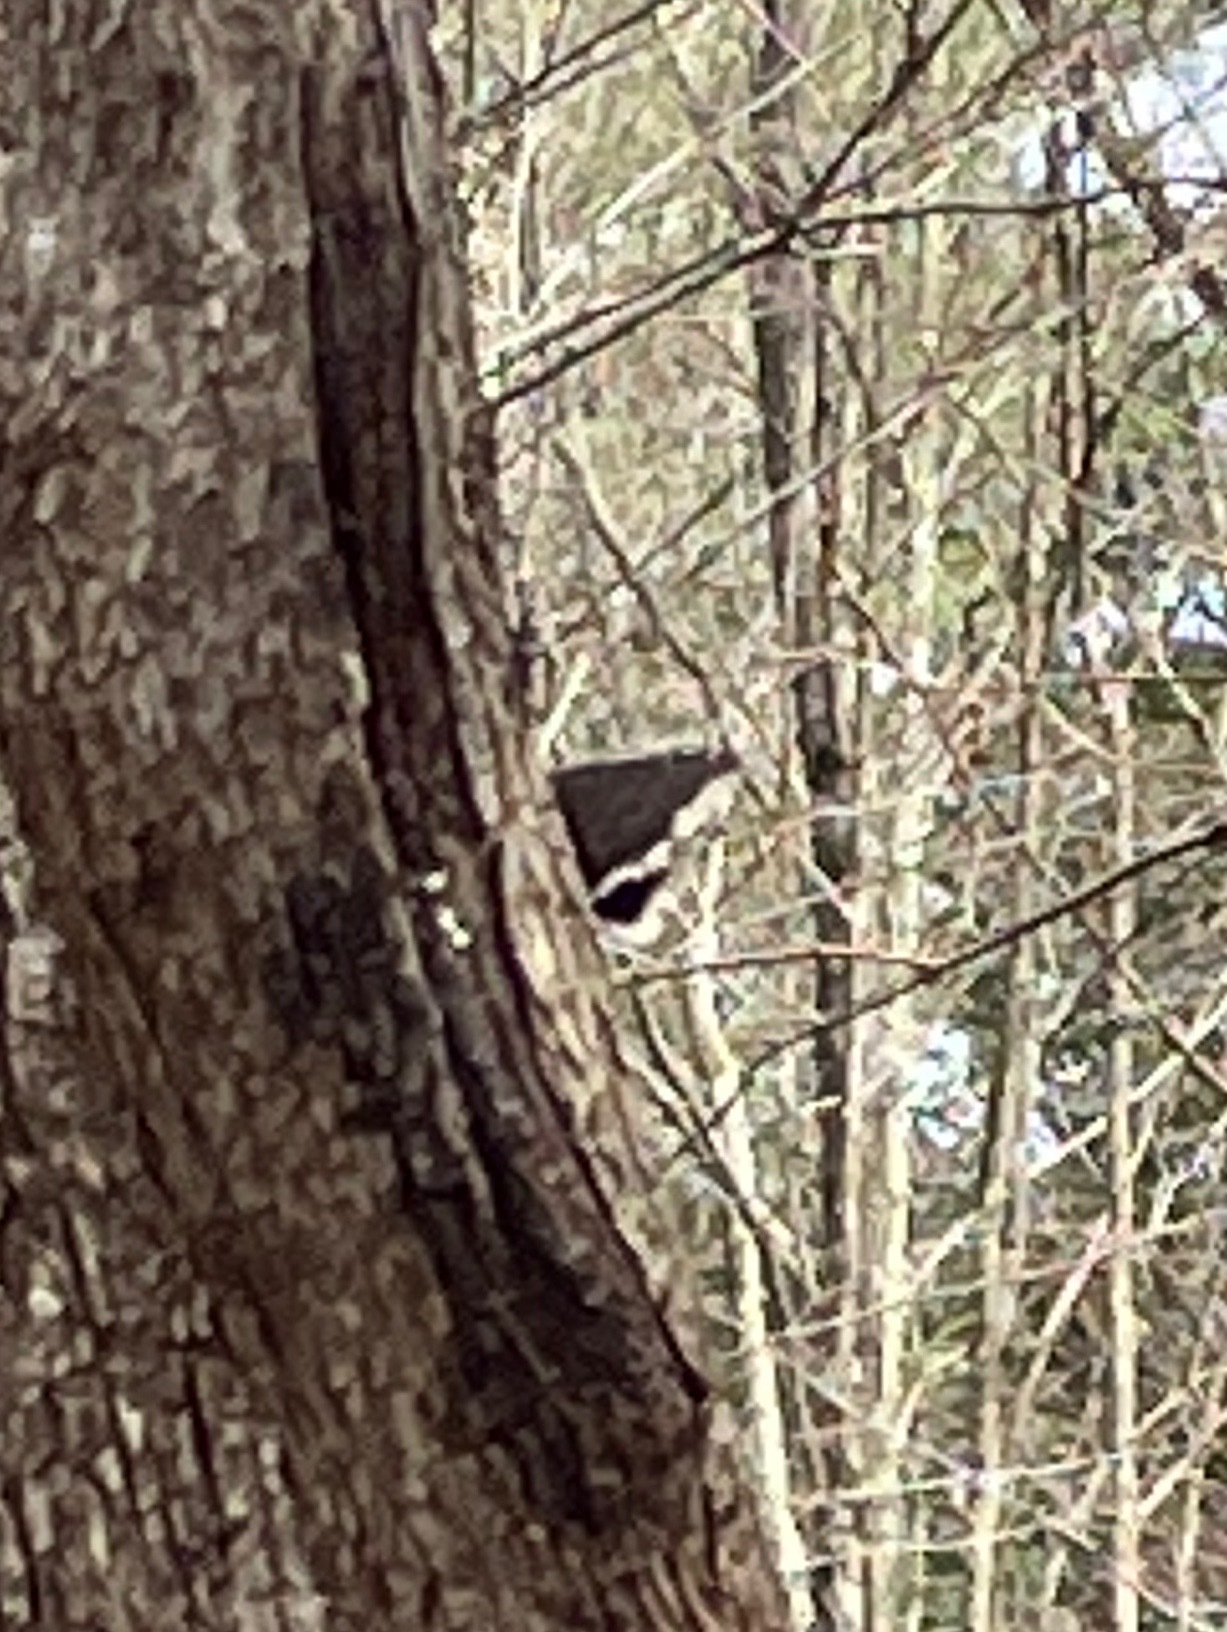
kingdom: Animalia
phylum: Arthropoda
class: Insecta
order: Lepidoptera
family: Nymphalidae
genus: Nymphalis
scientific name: Nymphalis antiopa
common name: Camberwell beauty
